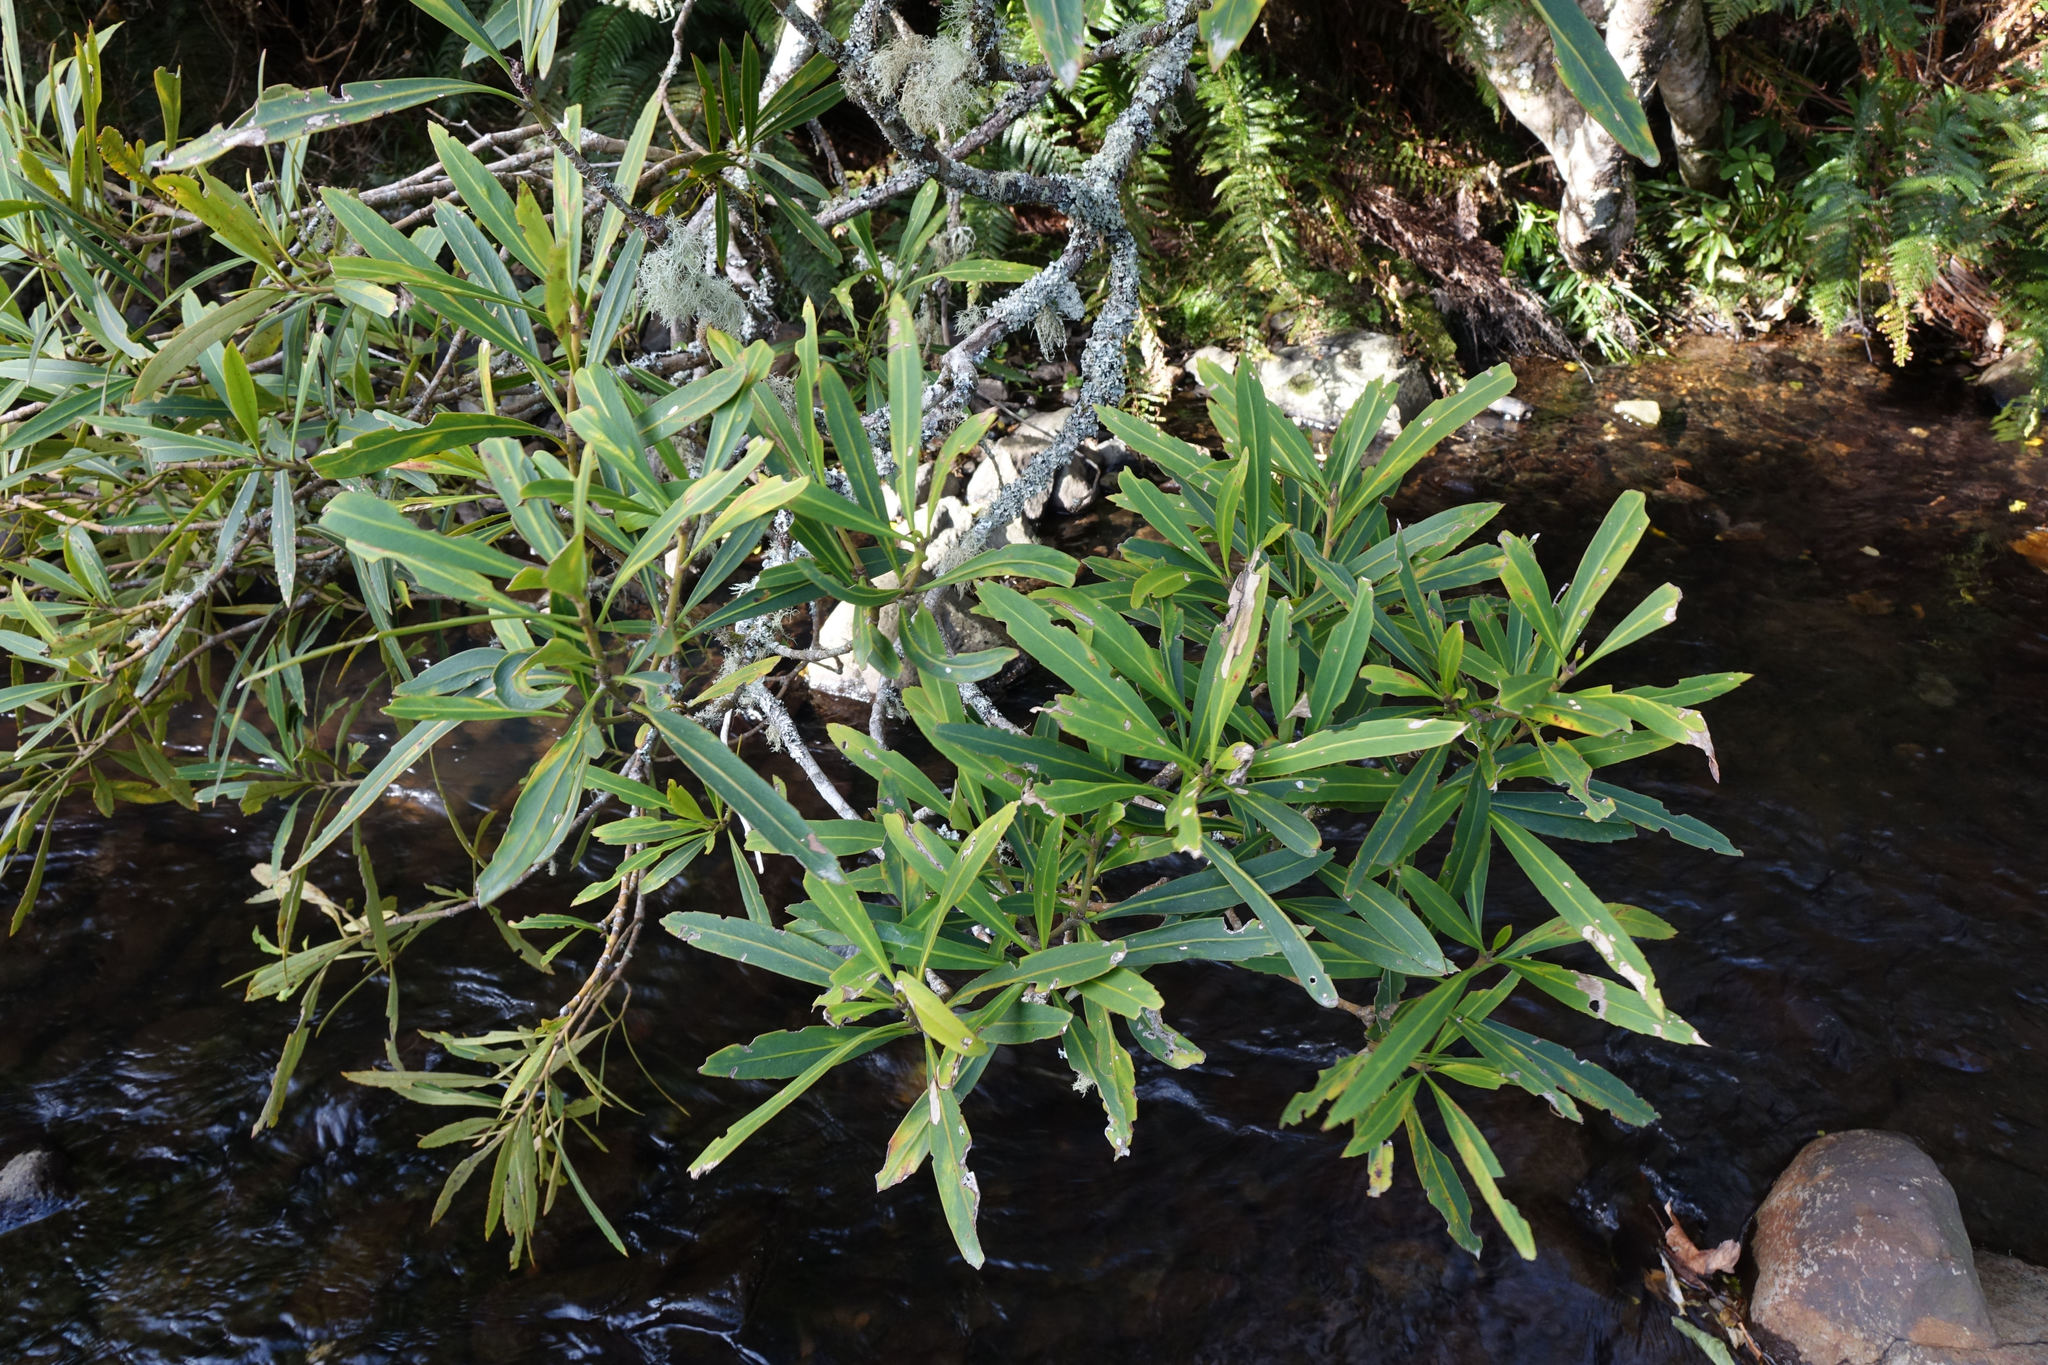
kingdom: Plantae
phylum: Tracheophyta
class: Magnoliopsida
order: Apiales
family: Araliaceae
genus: Pseudopanax
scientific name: Pseudopanax crassifolius
